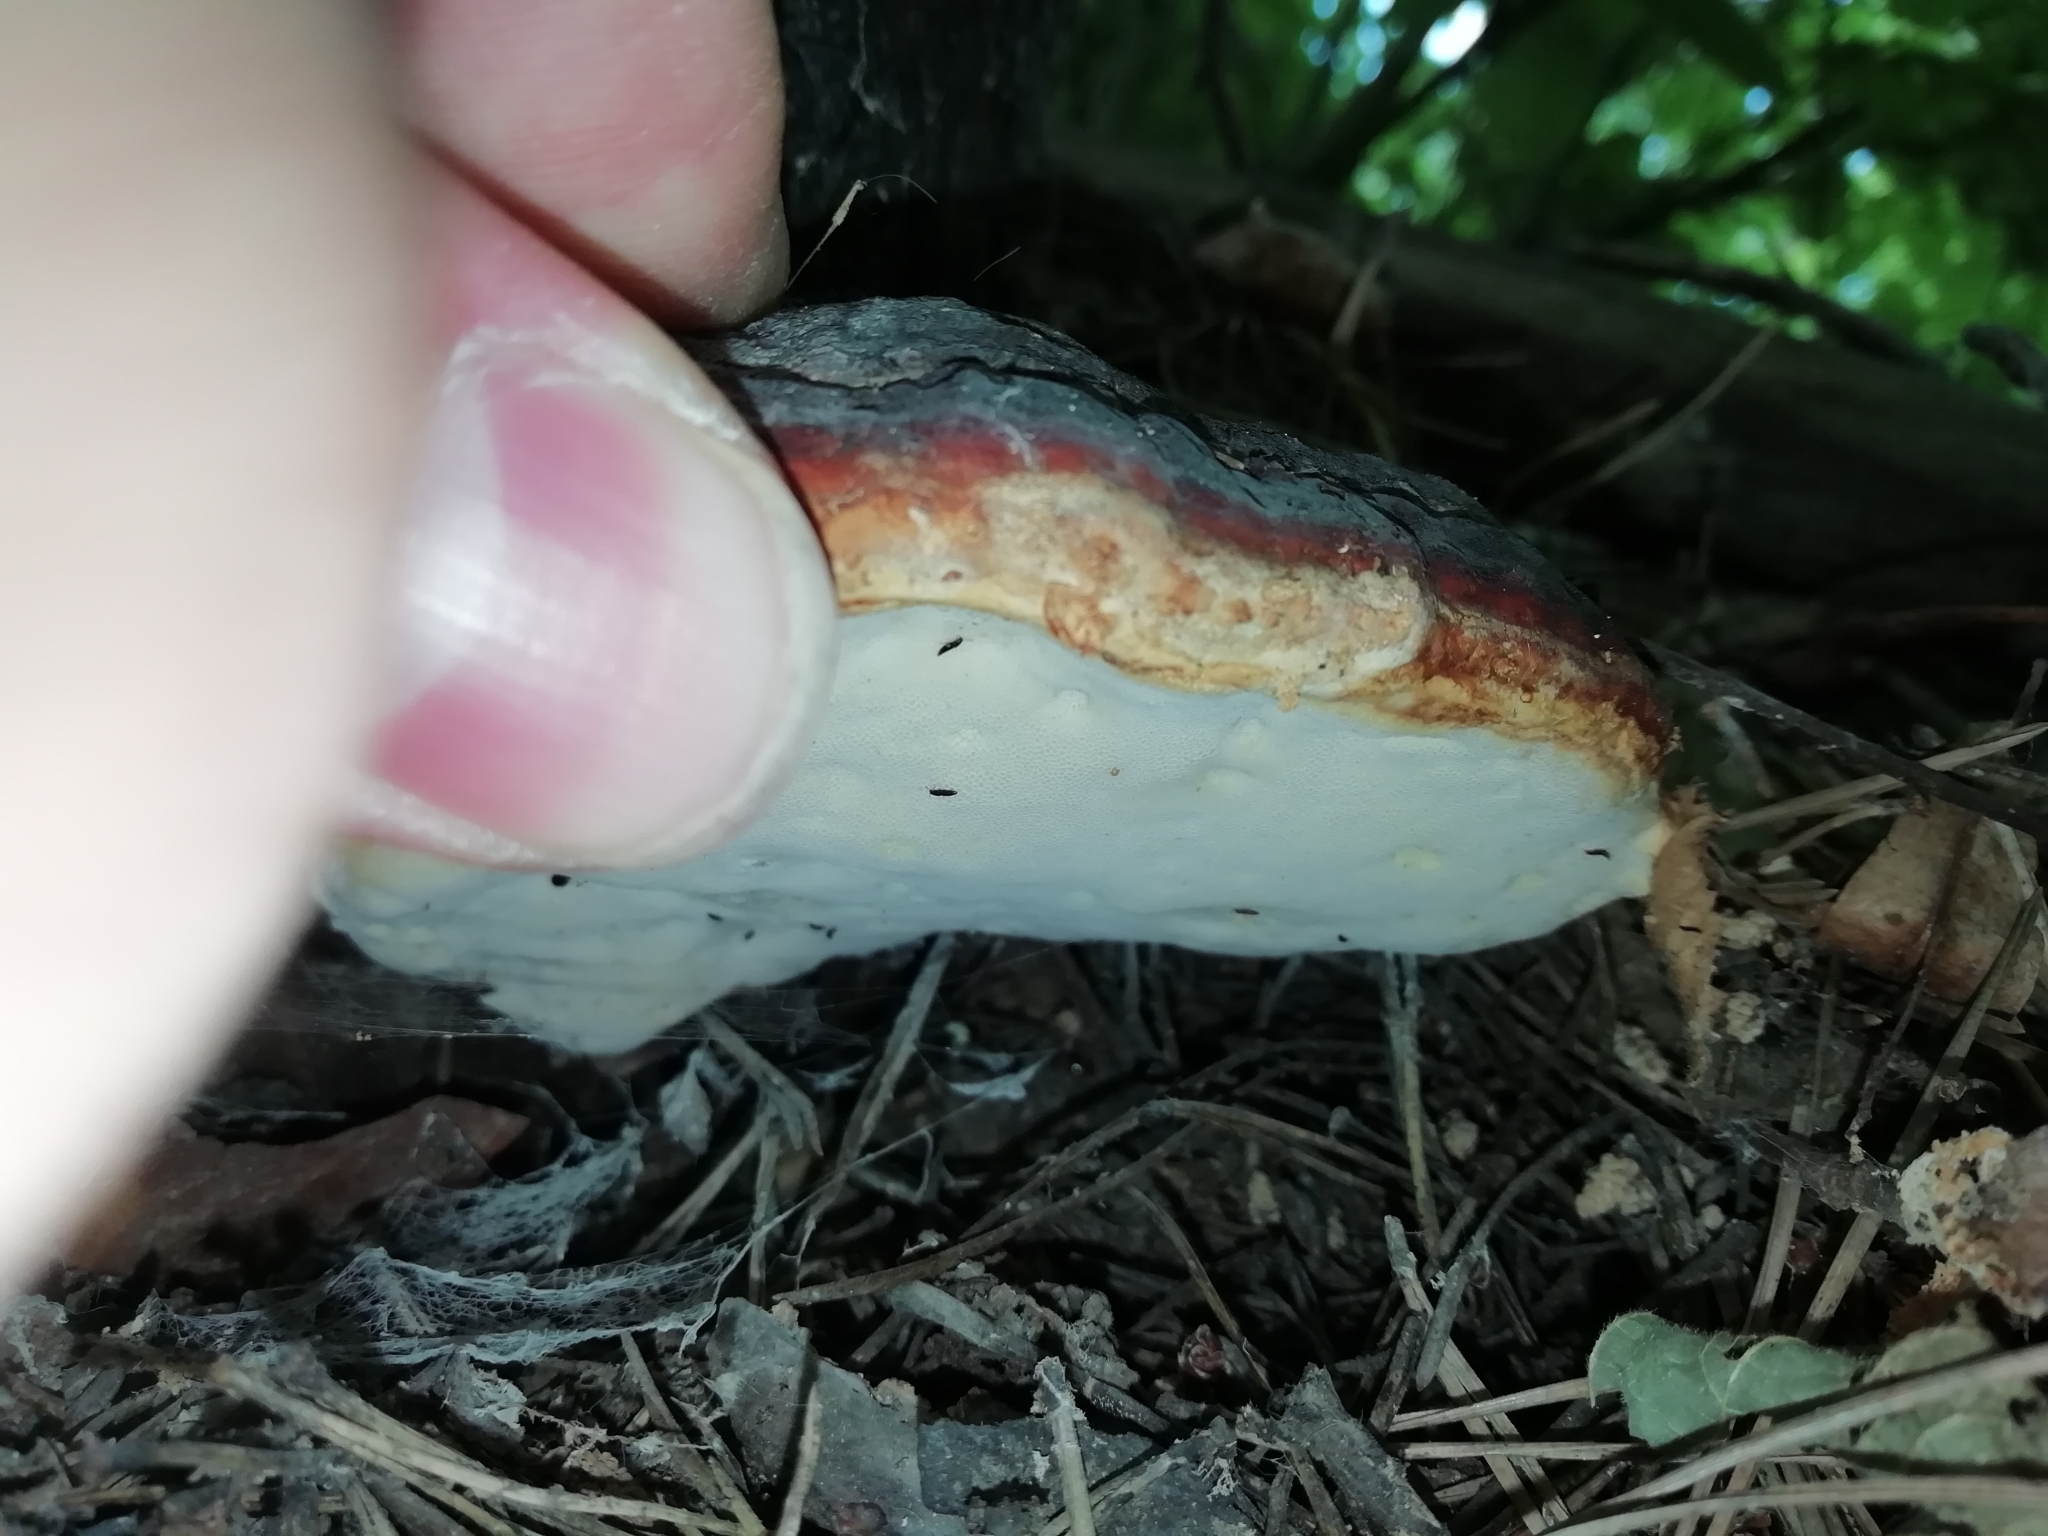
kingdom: Fungi
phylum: Basidiomycota
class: Agaricomycetes
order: Polyporales
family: Fomitopsidaceae
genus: Fomitopsis
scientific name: Fomitopsis pinicola
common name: Red-belted bracket
